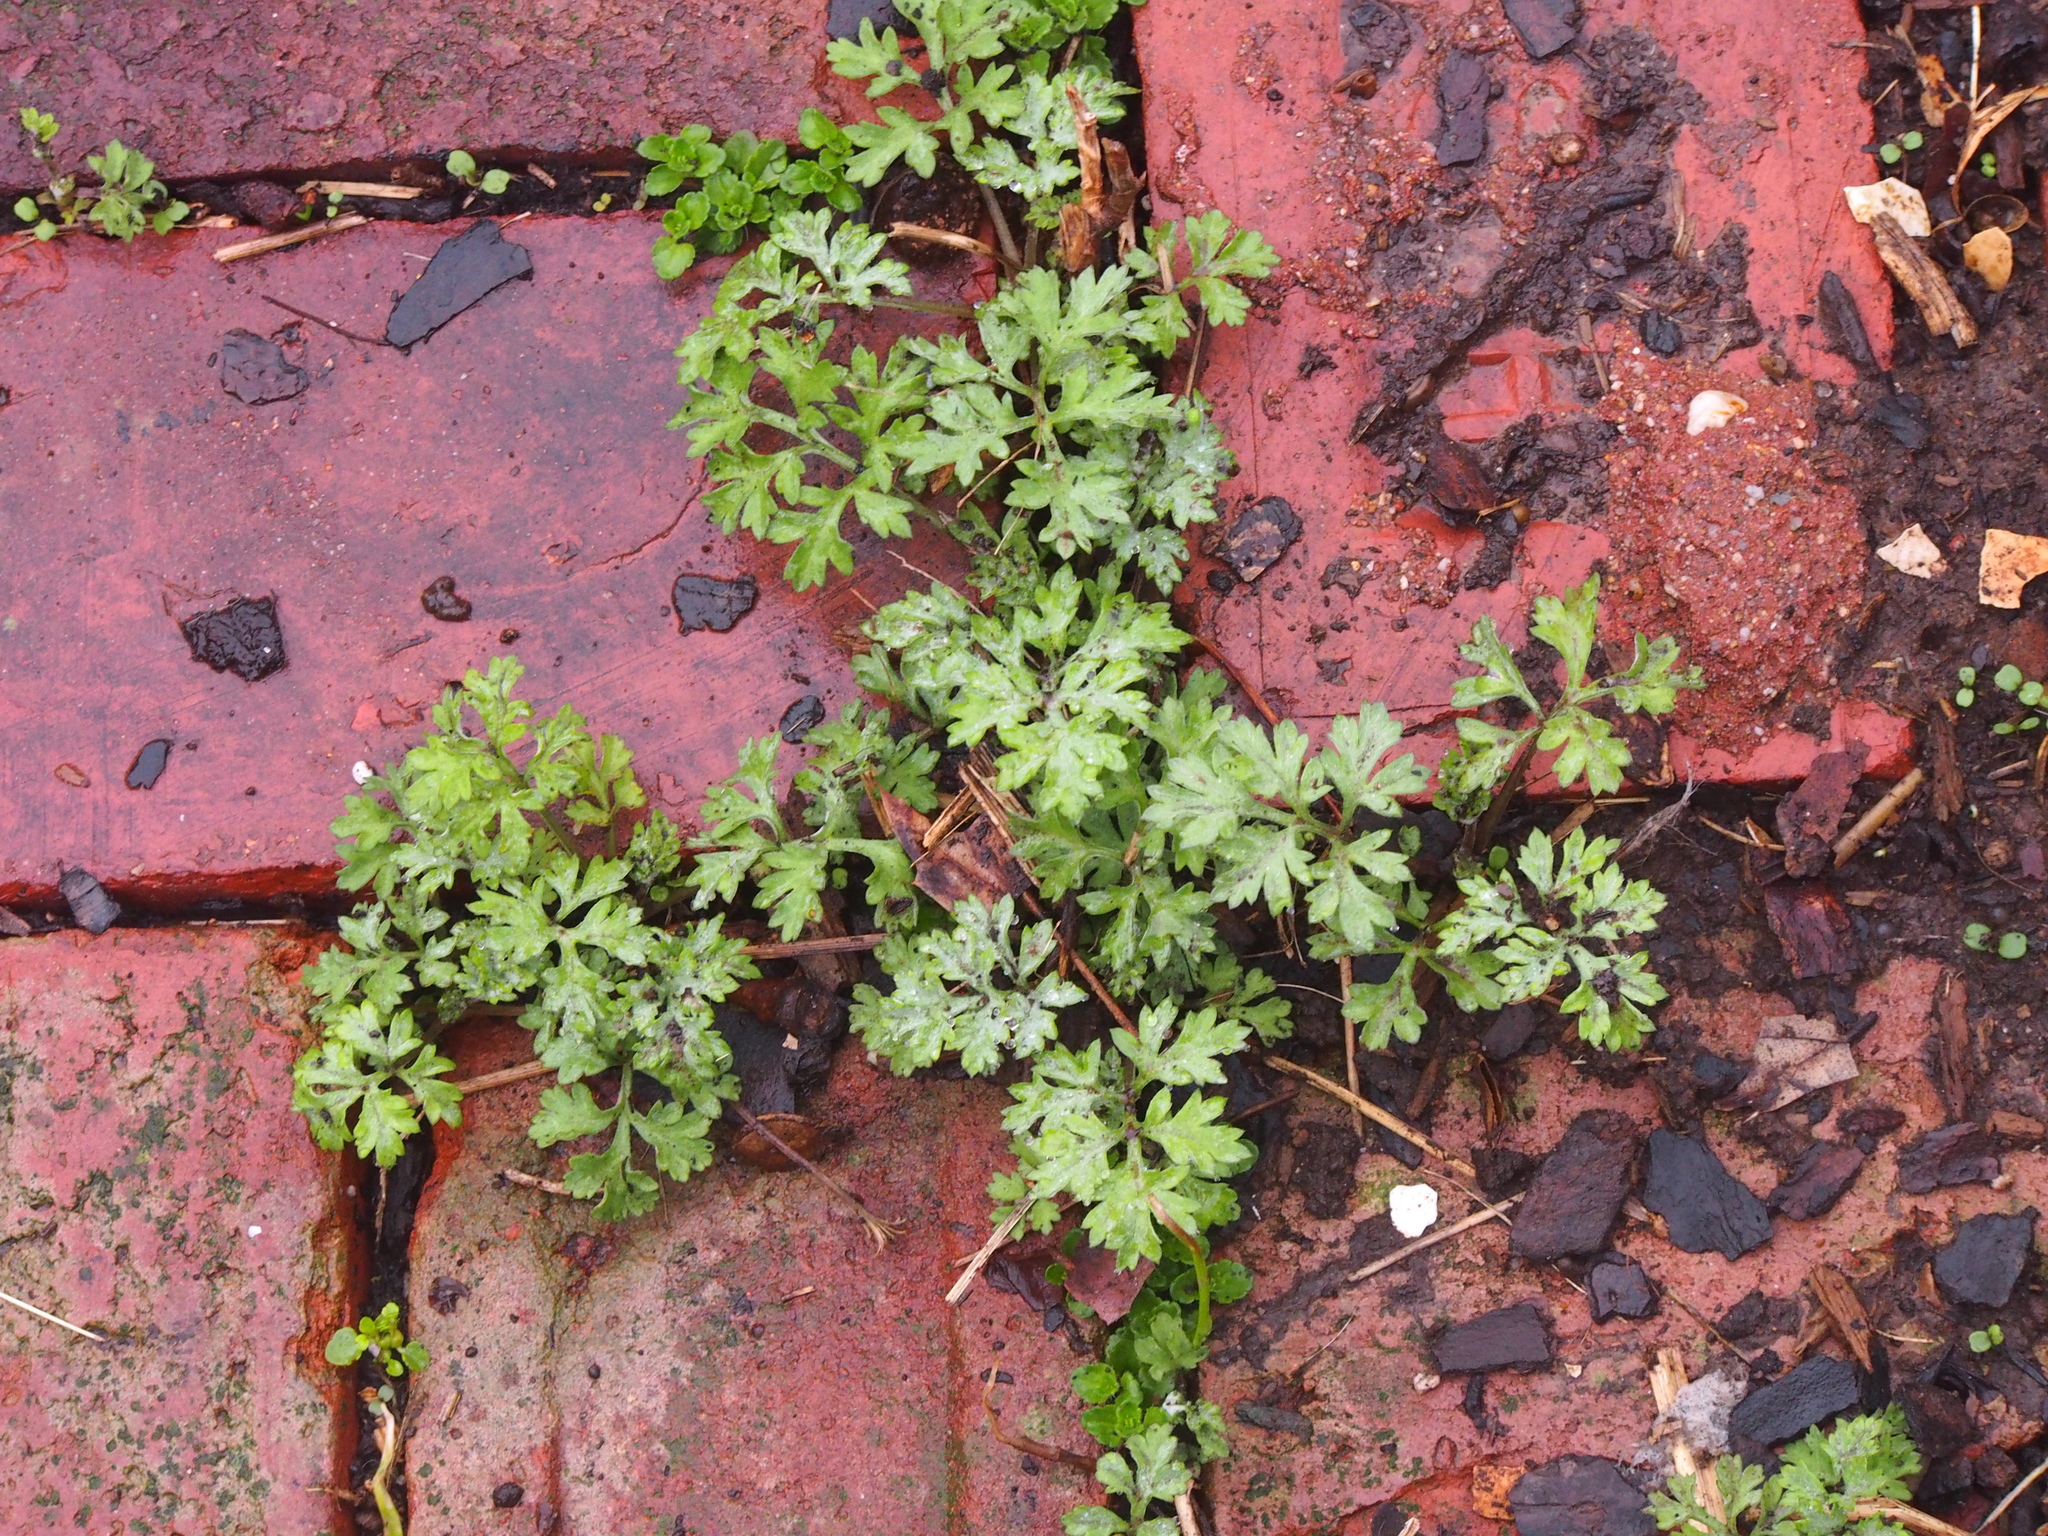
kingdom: Plantae
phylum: Tracheophyta
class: Magnoliopsida
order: Asterales
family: Asteraceae
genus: Artemisia
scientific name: Artemisia vulgaris
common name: Mugwort
